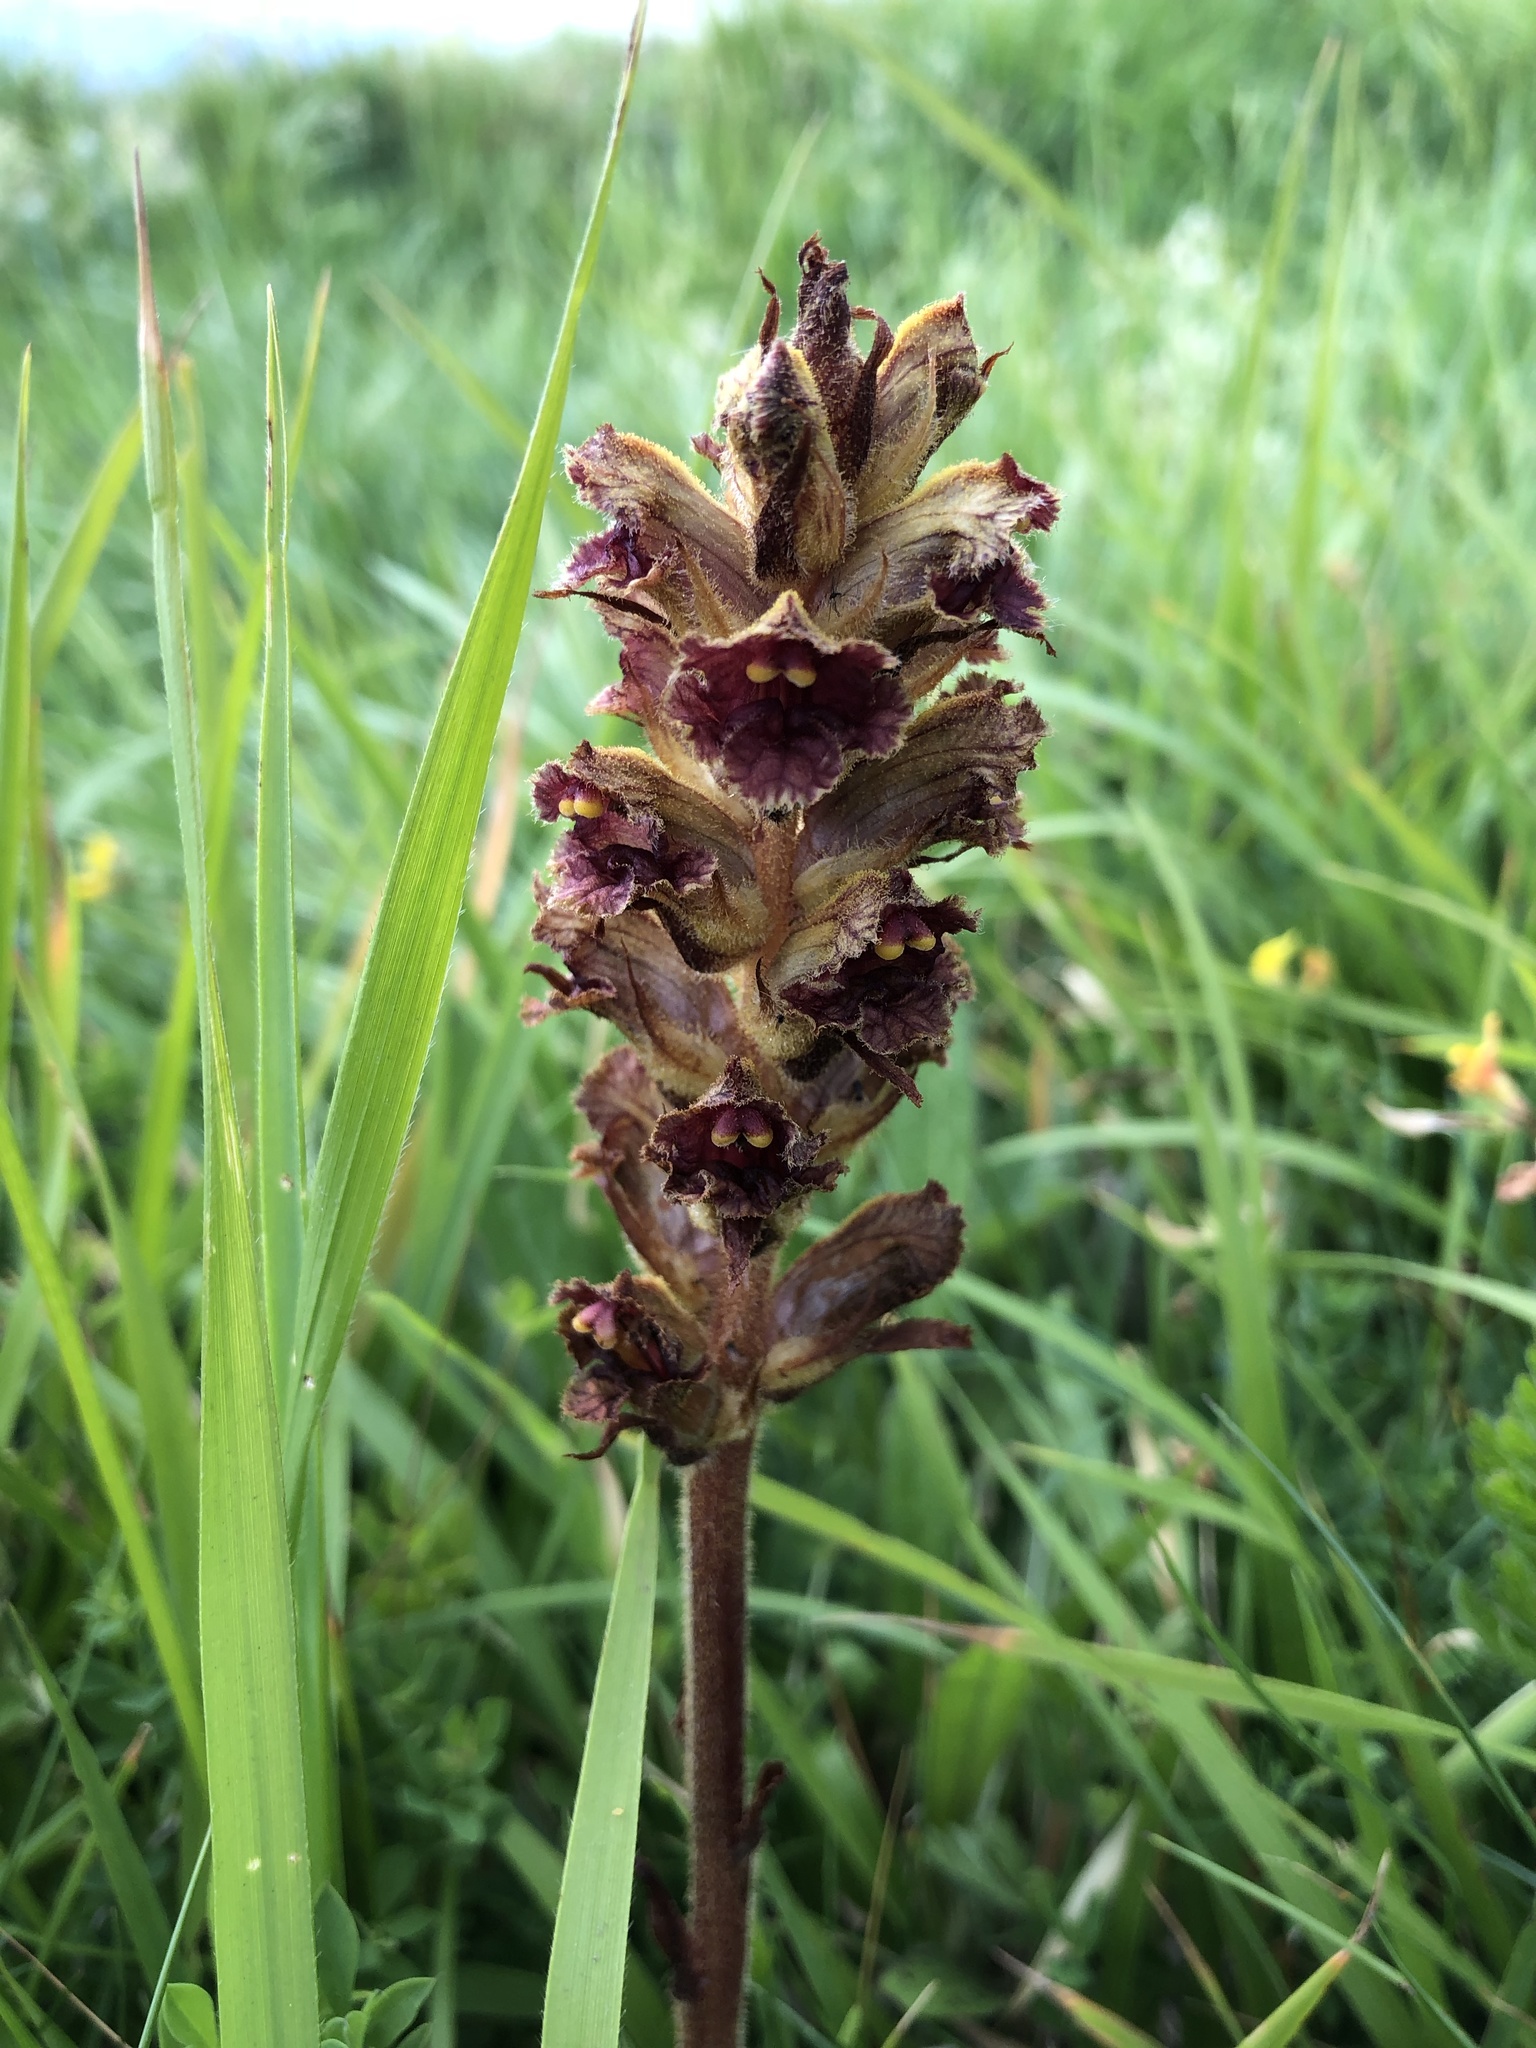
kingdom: Plantae
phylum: Tracheophyta
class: Magnoliopsida
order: Lamiales
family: Orobanchaceae
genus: Orobanche
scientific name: Orobanche gracilis
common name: Slender broomrape
